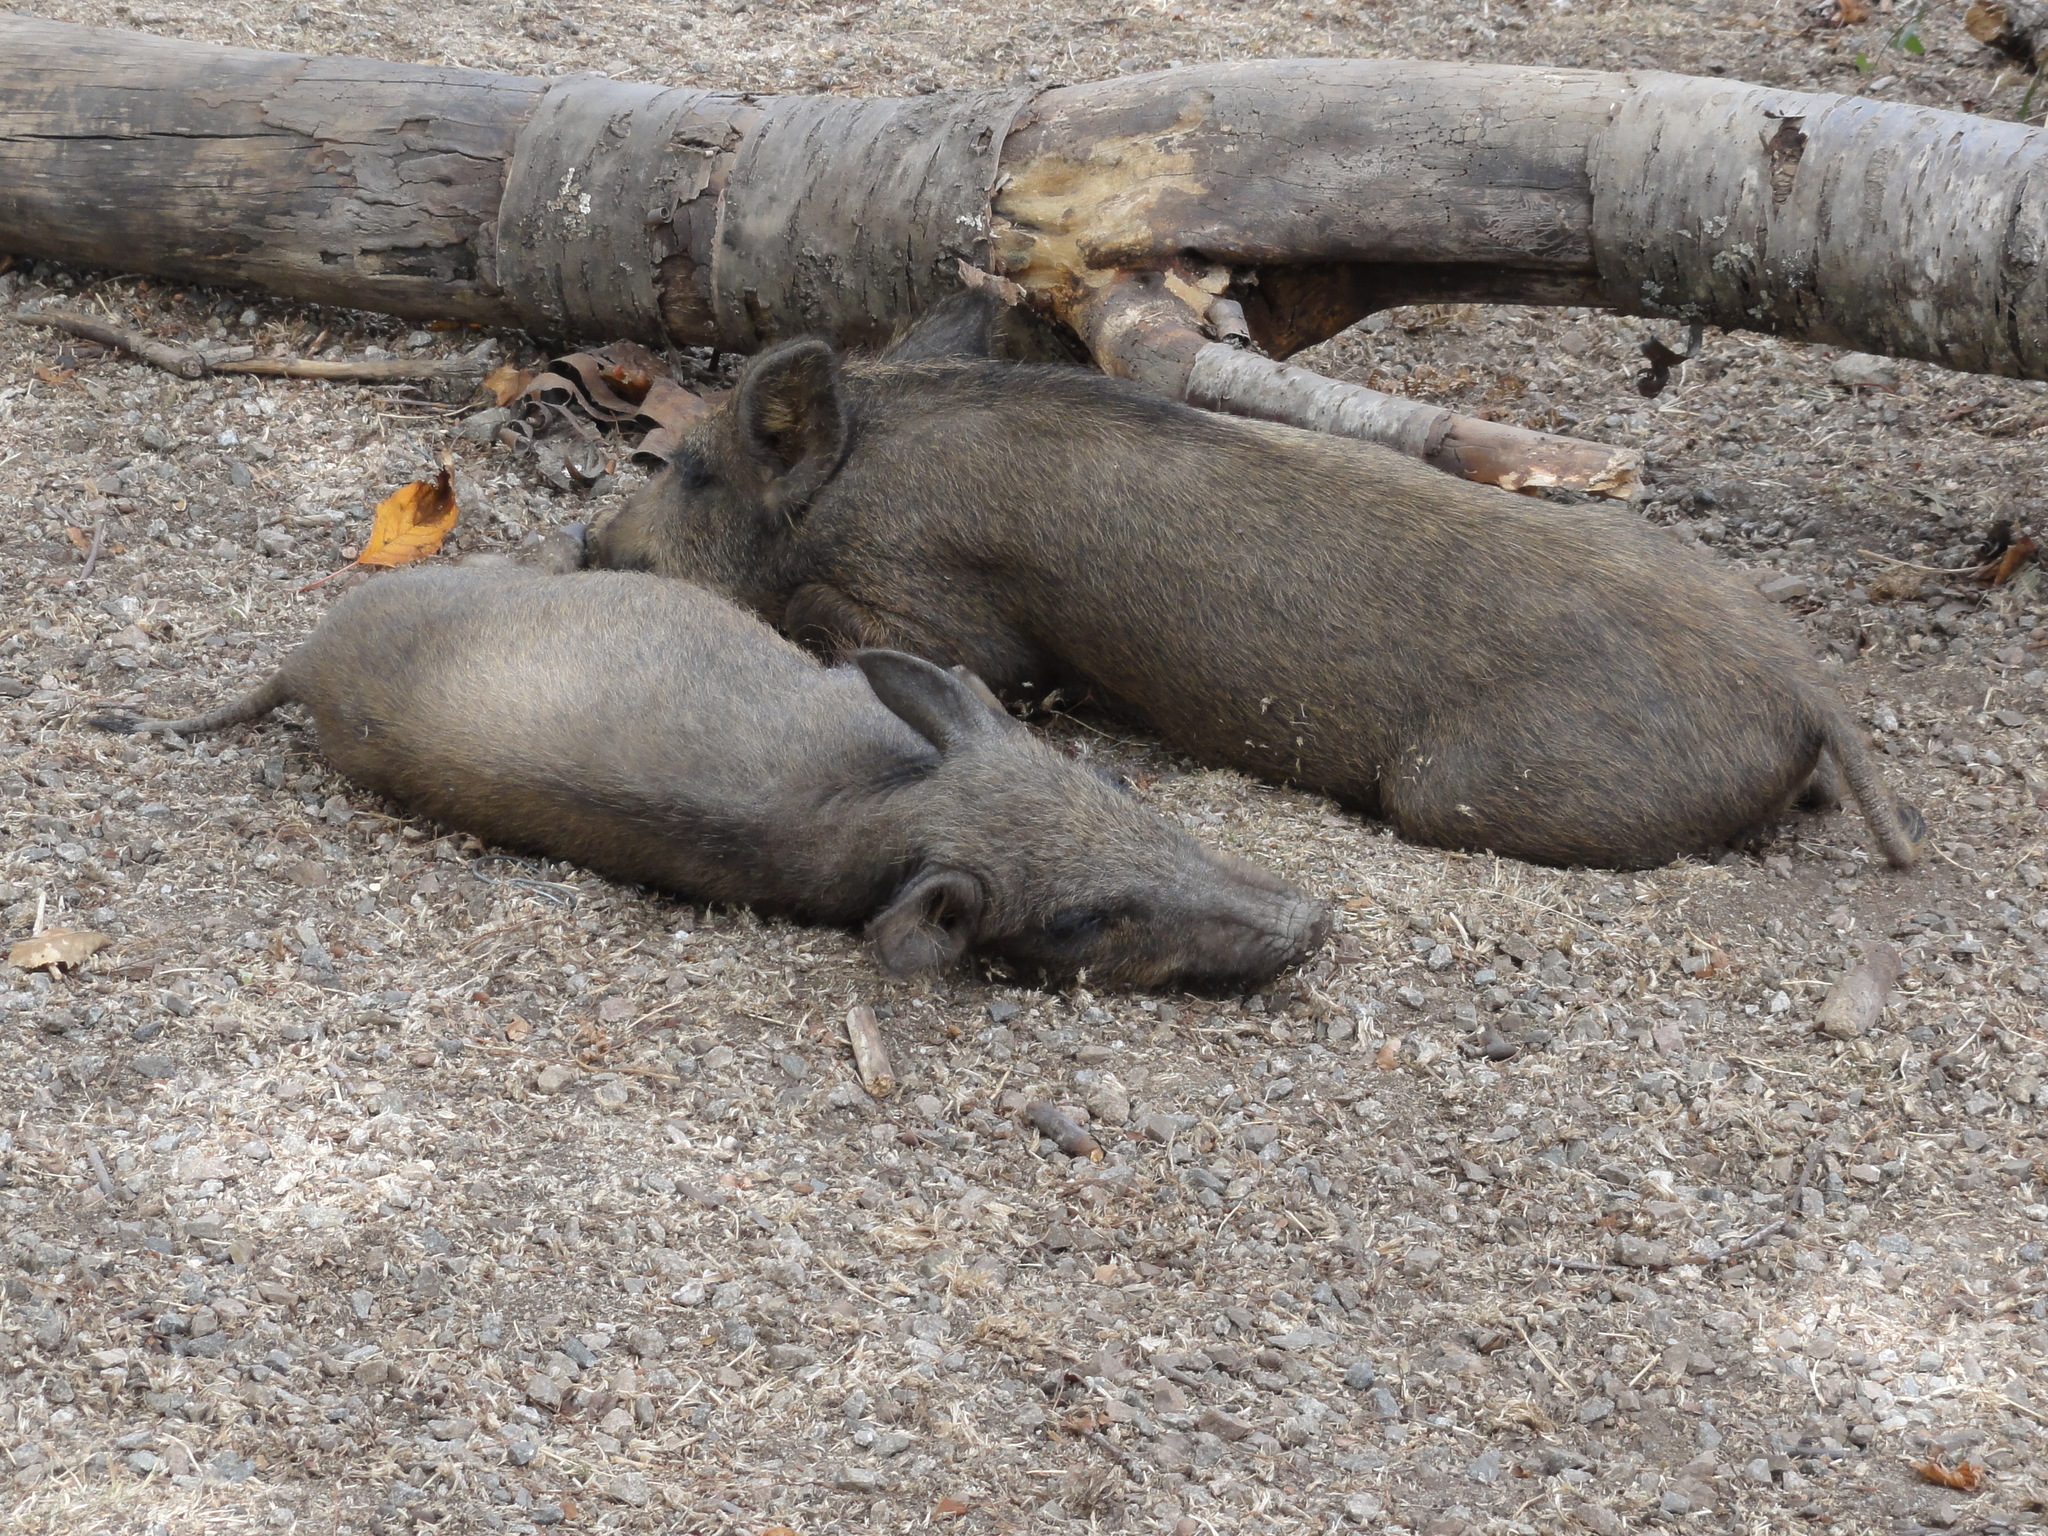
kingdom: Animalia
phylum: Chordata
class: Mammalia
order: Artiodactyla
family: Suidae
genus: Sus
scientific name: Sus scrofa
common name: Wild boar
